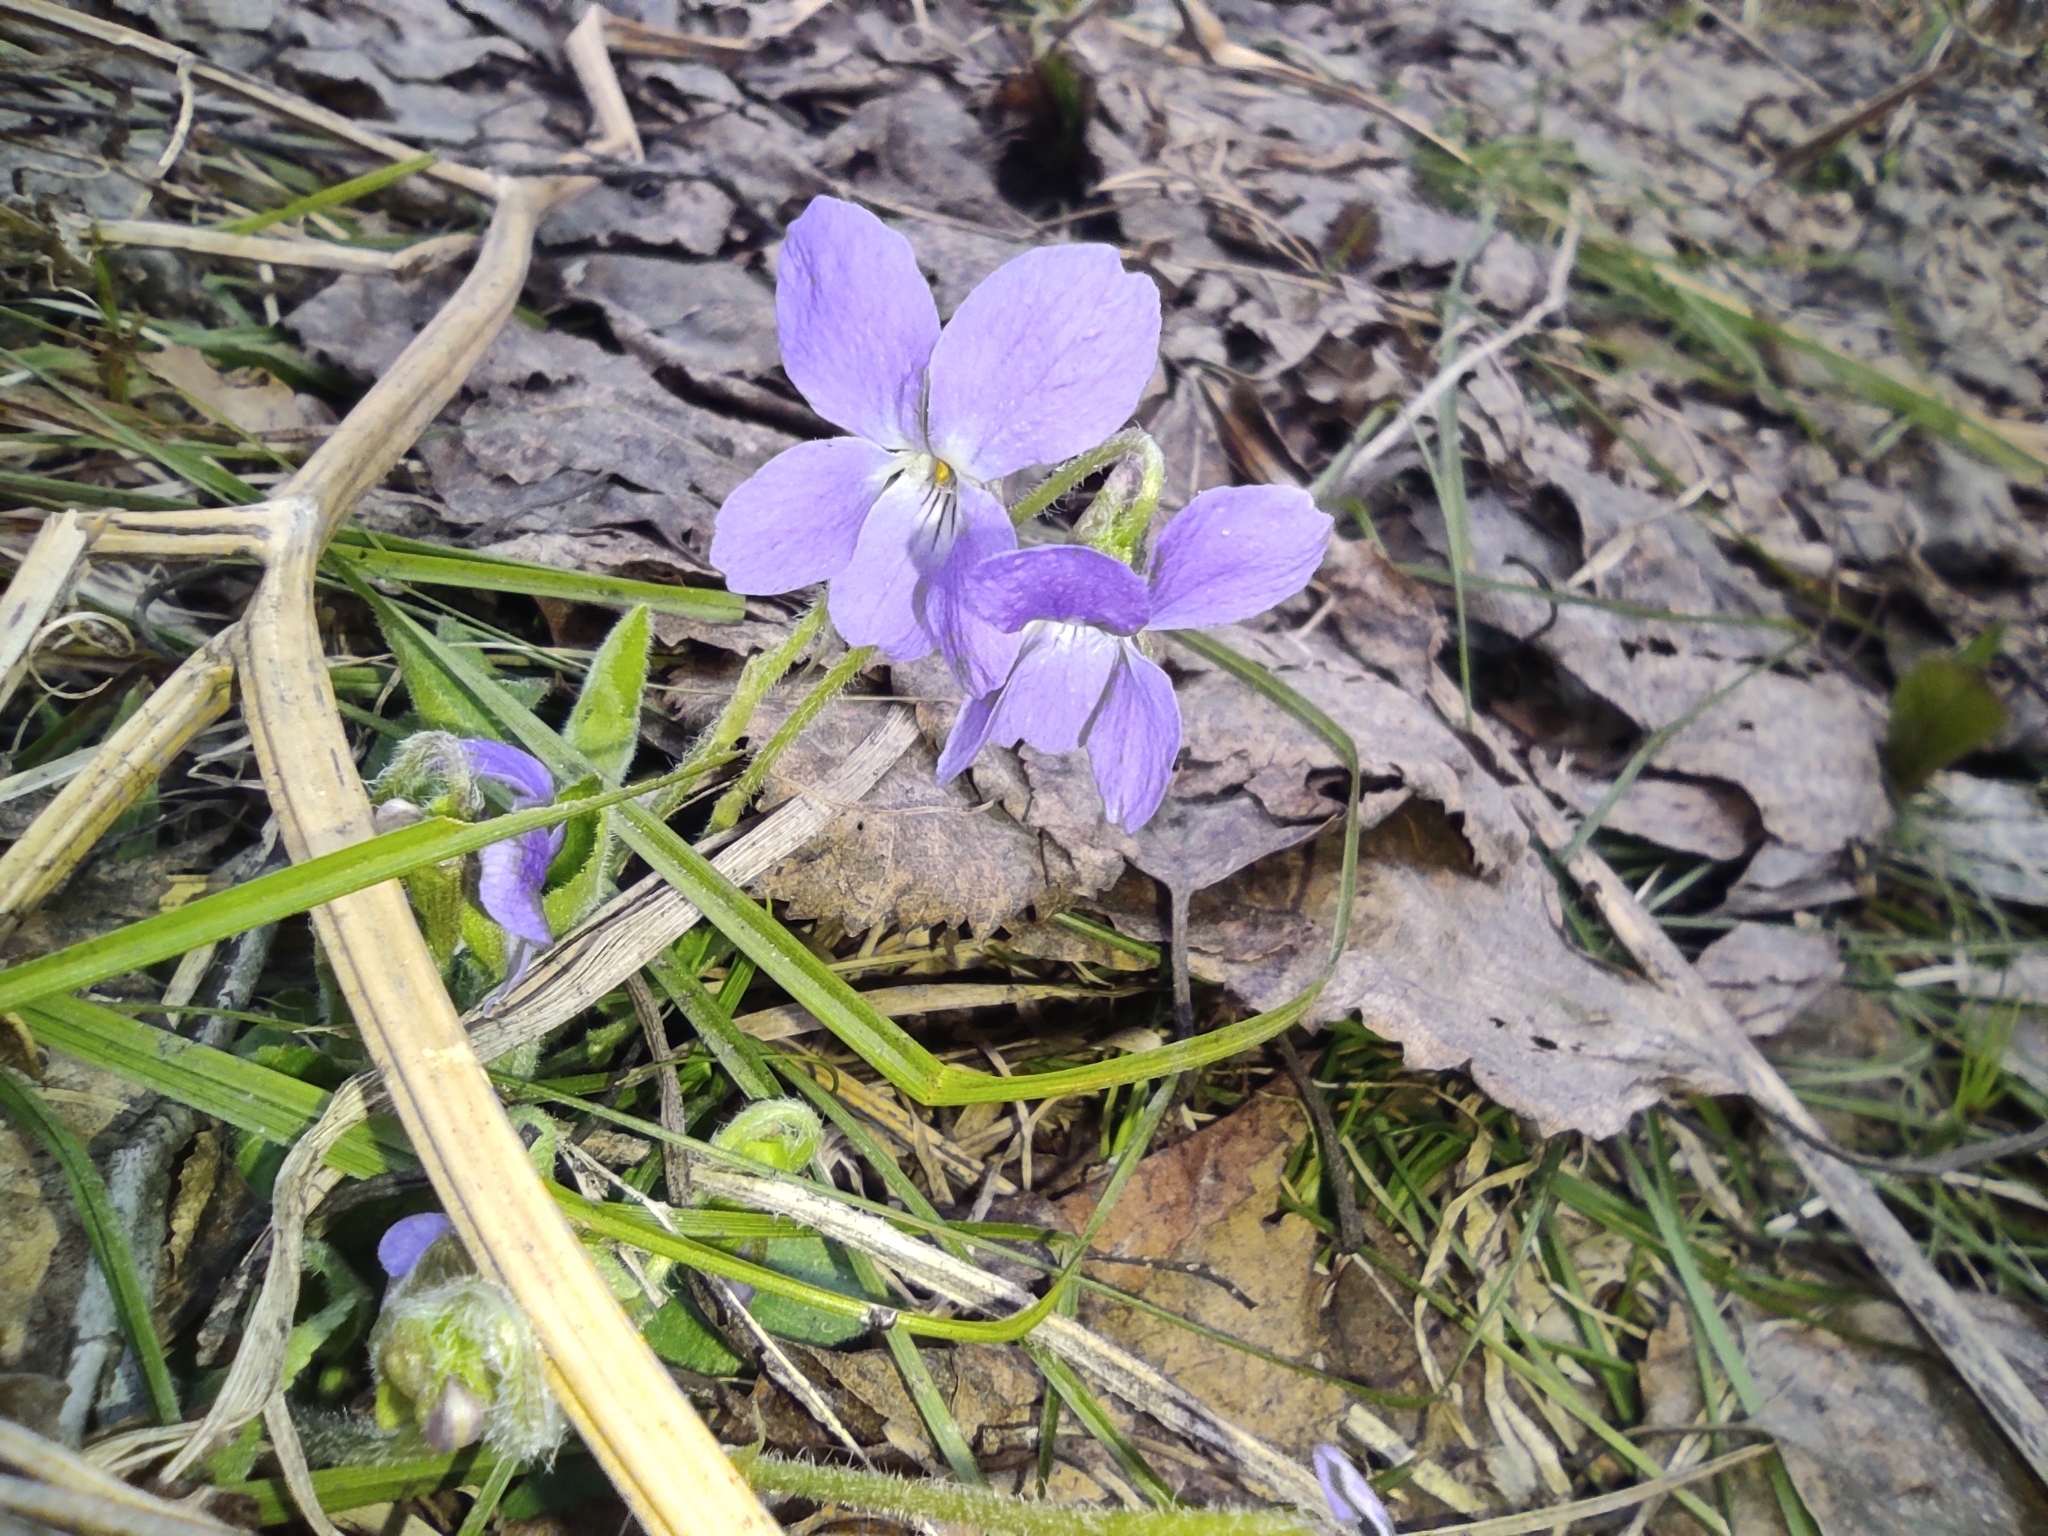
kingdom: Plantae
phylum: Tracheophyta
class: Magnoliopsida
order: Malpighiales
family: Violaceae
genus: Viola
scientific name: Viola hirta
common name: Hairy violet
